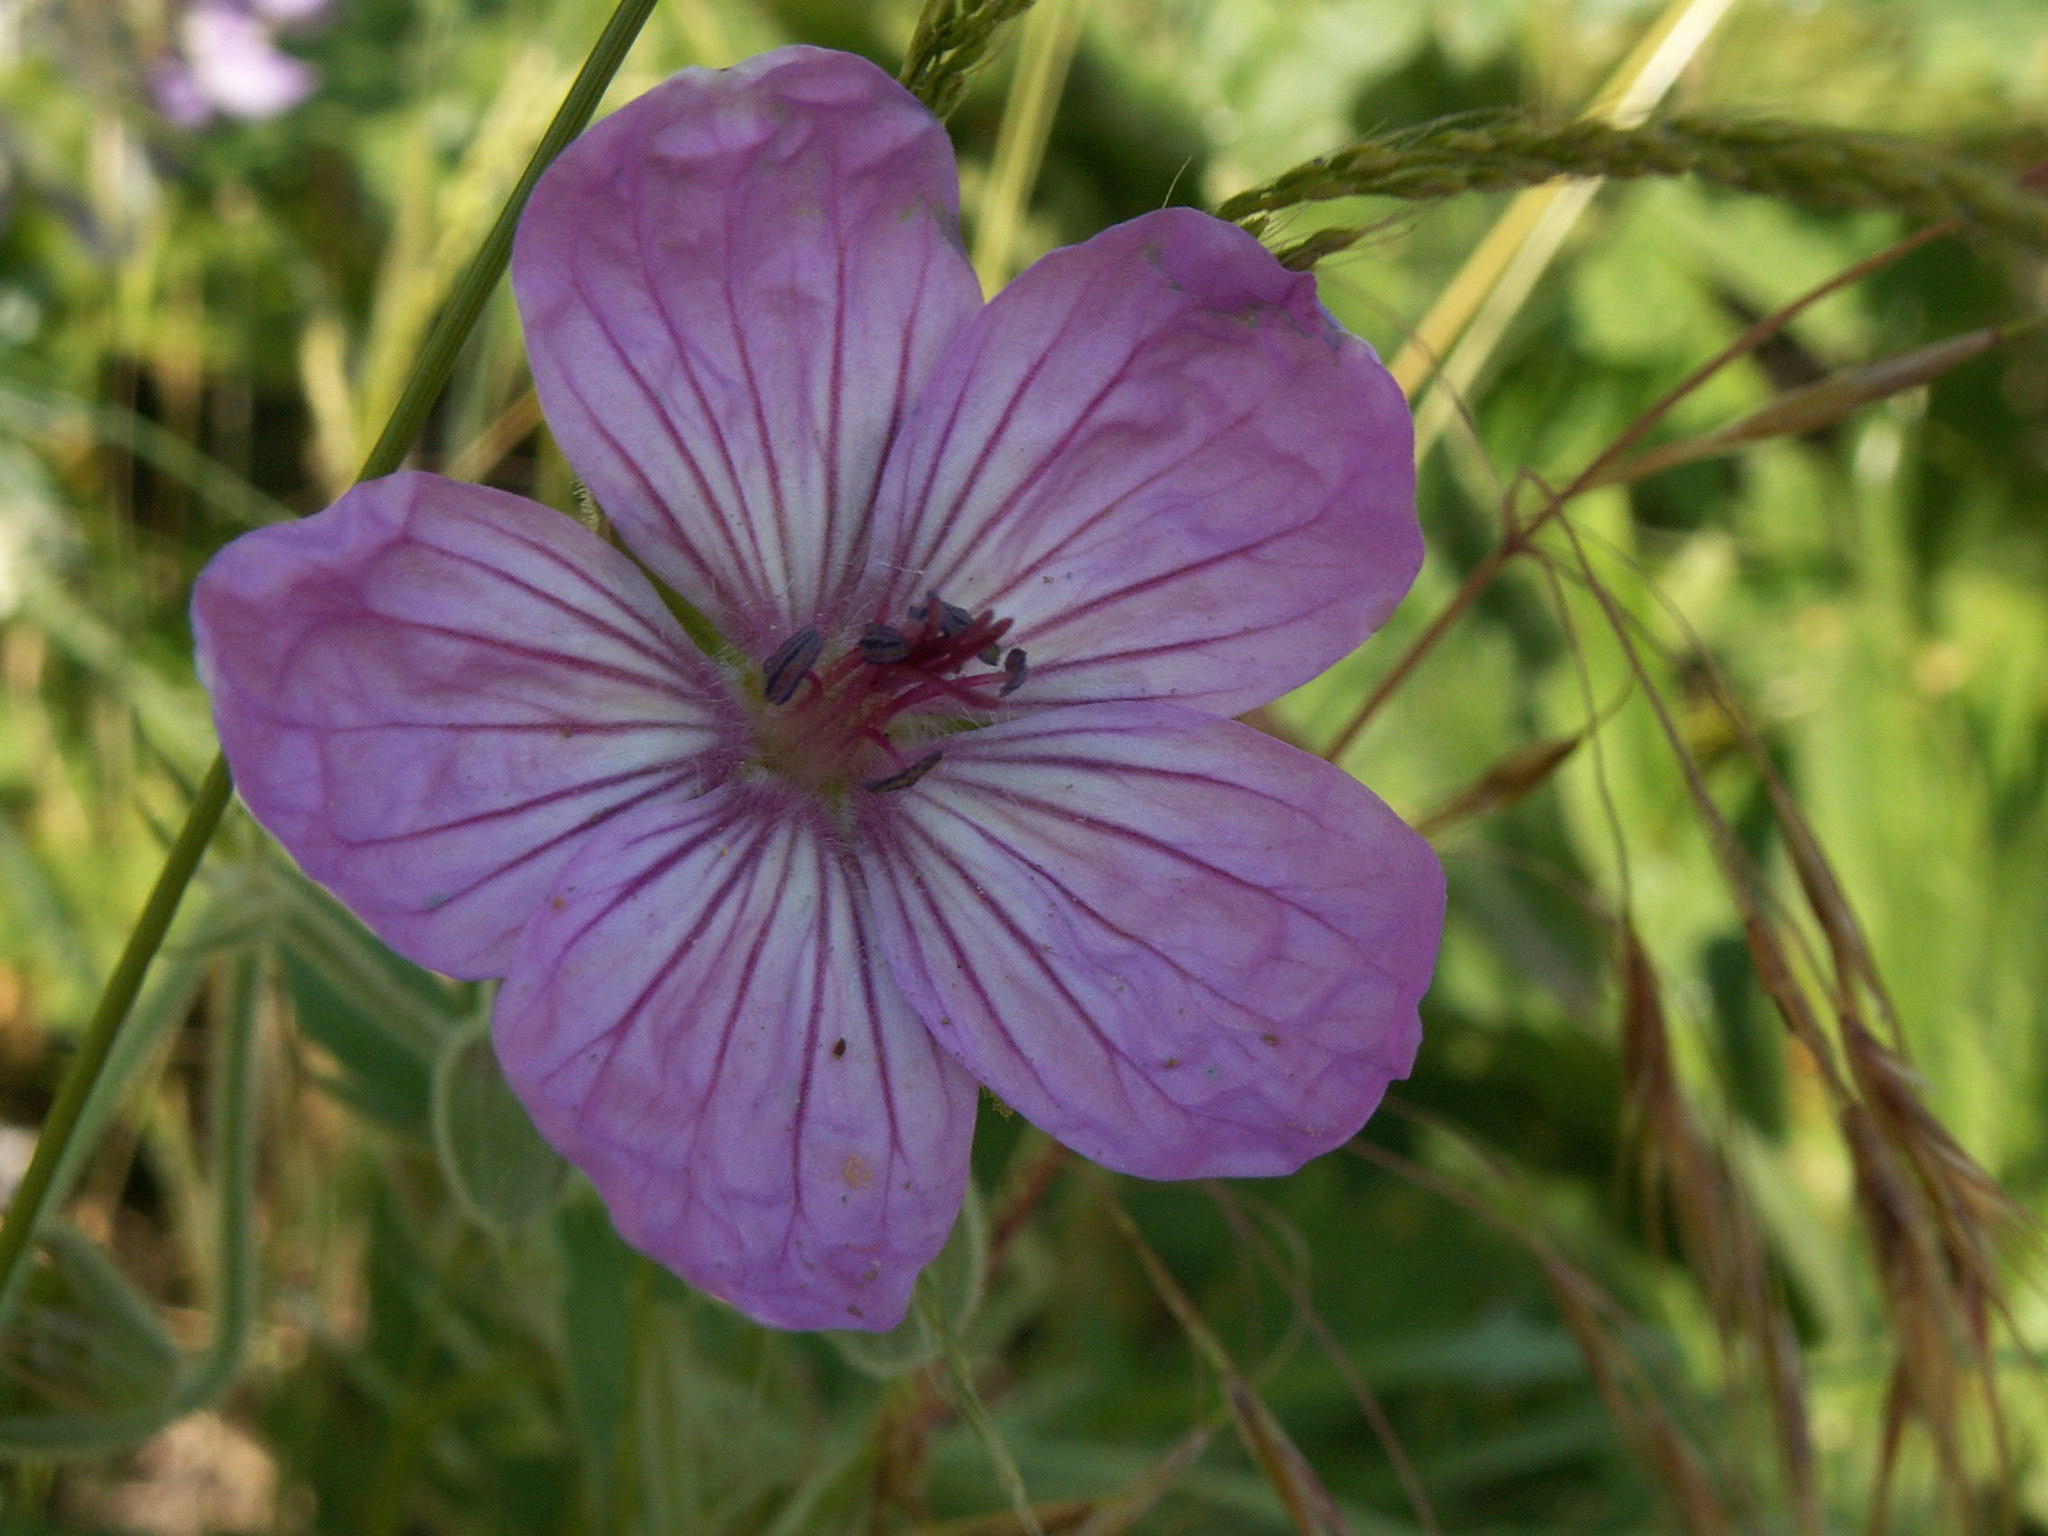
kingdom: Plantae
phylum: Tracheophyta
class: Magnoliopsida
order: Geraniales
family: Geraniaceae
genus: Geranium
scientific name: Geranium viscosissimum
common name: Purple geranium
